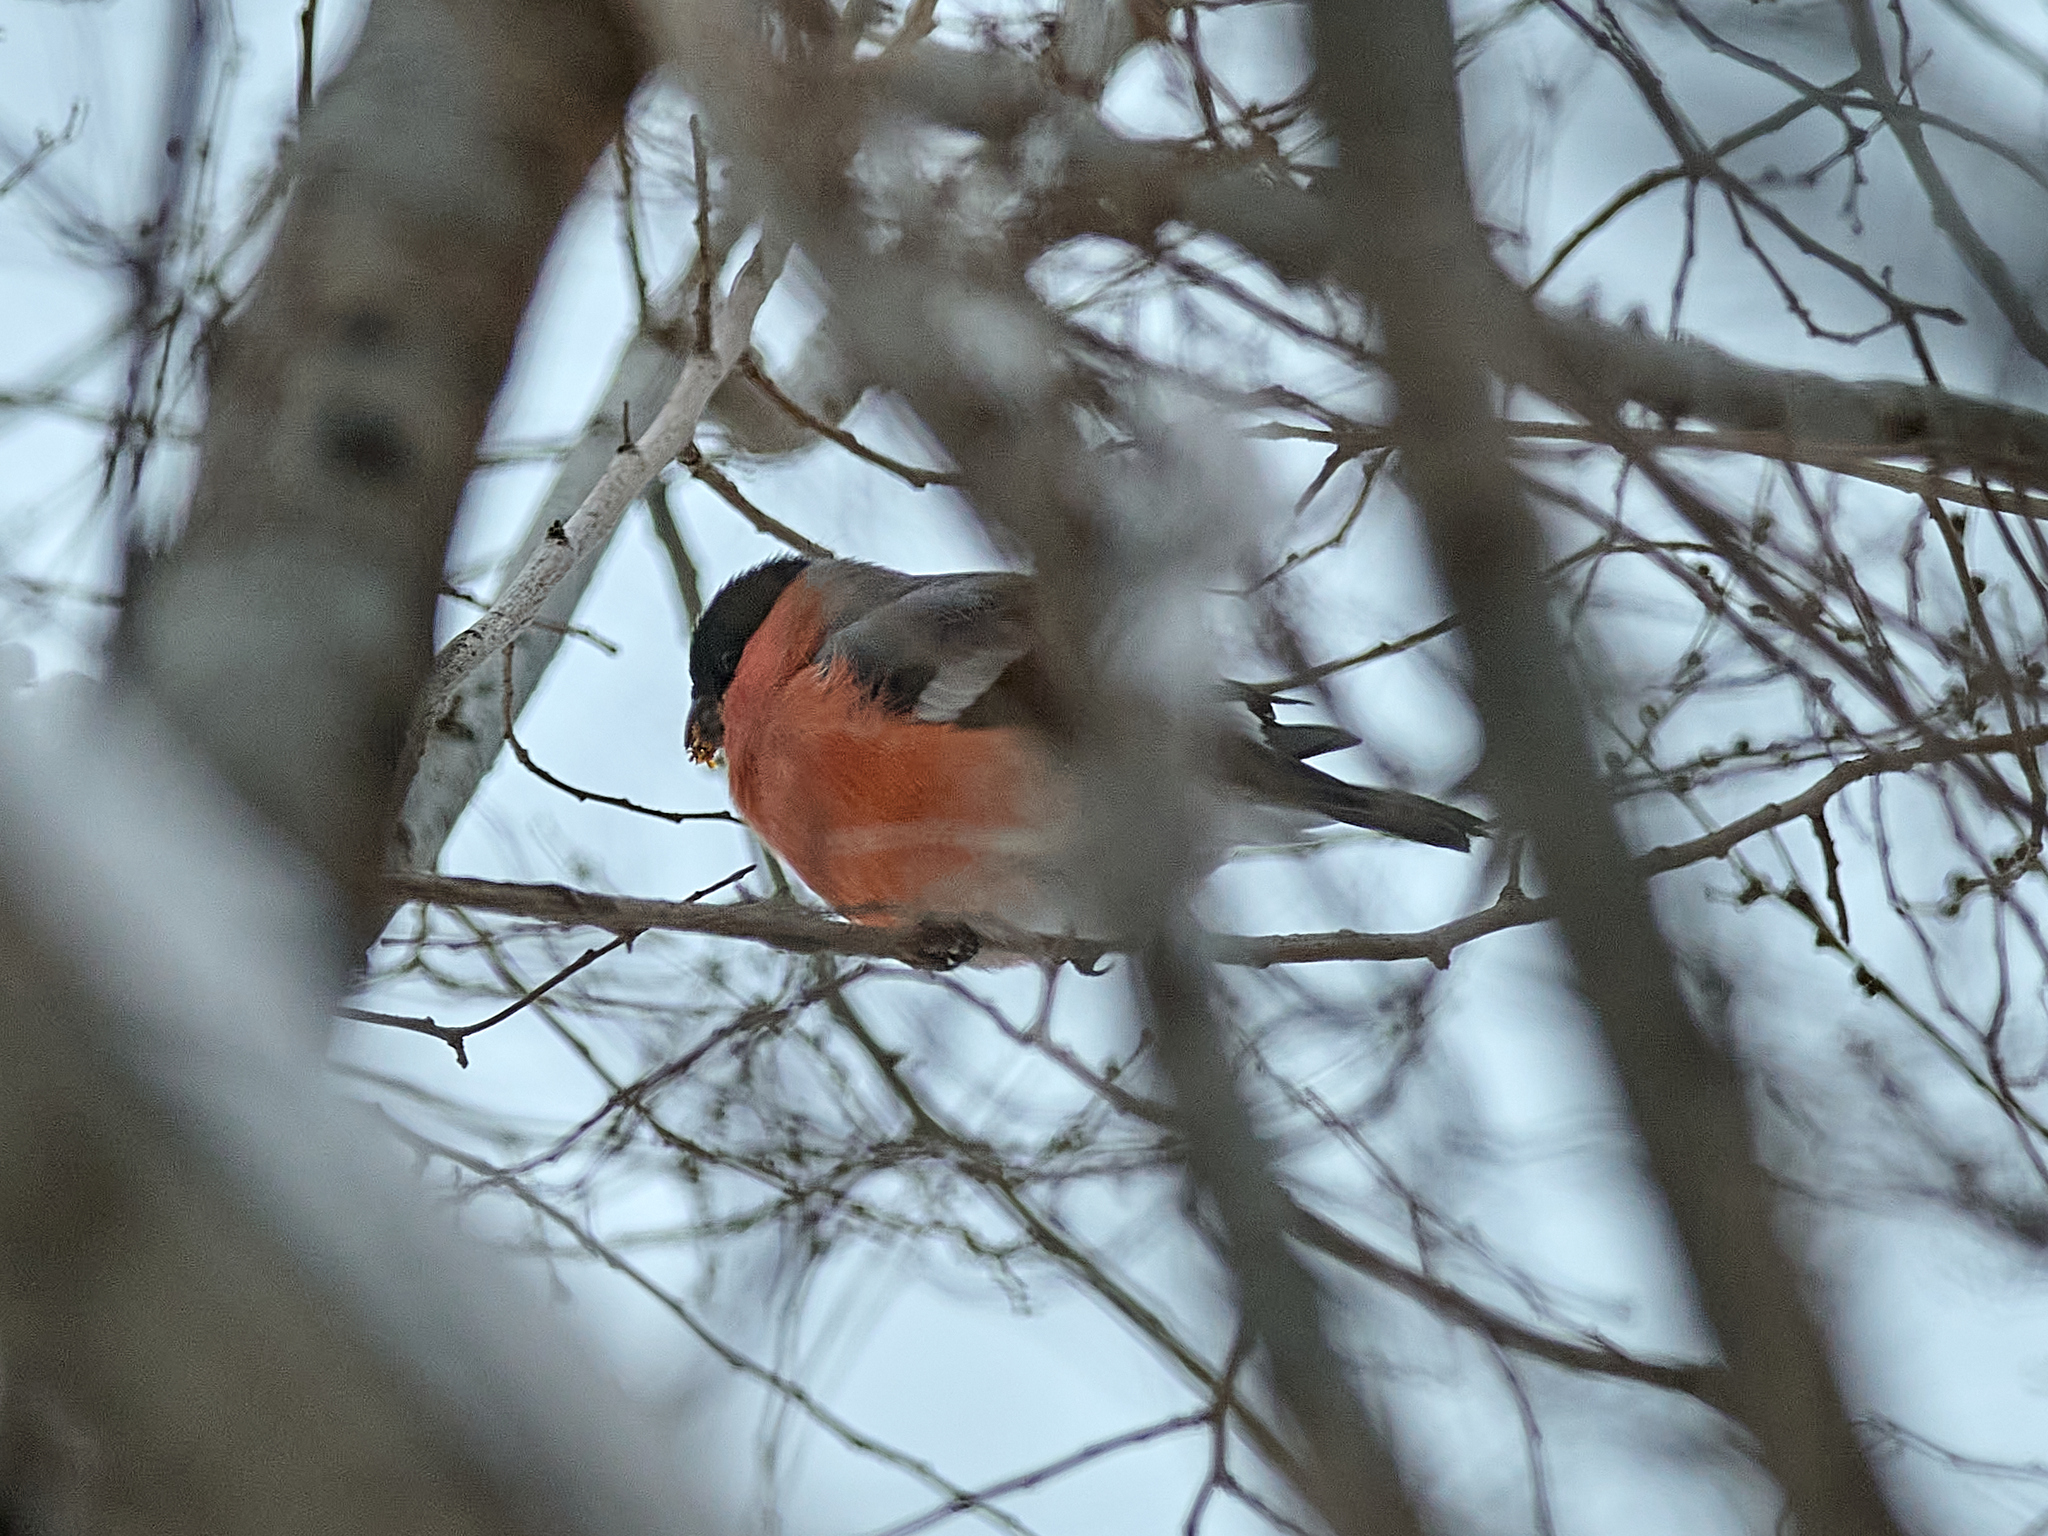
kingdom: Animalia
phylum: Chordata
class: Aves
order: Passeriformes
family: Fringillidae
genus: Pyrrhula
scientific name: Pyrrhula pyrrhula
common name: Eurasian bullfinch
